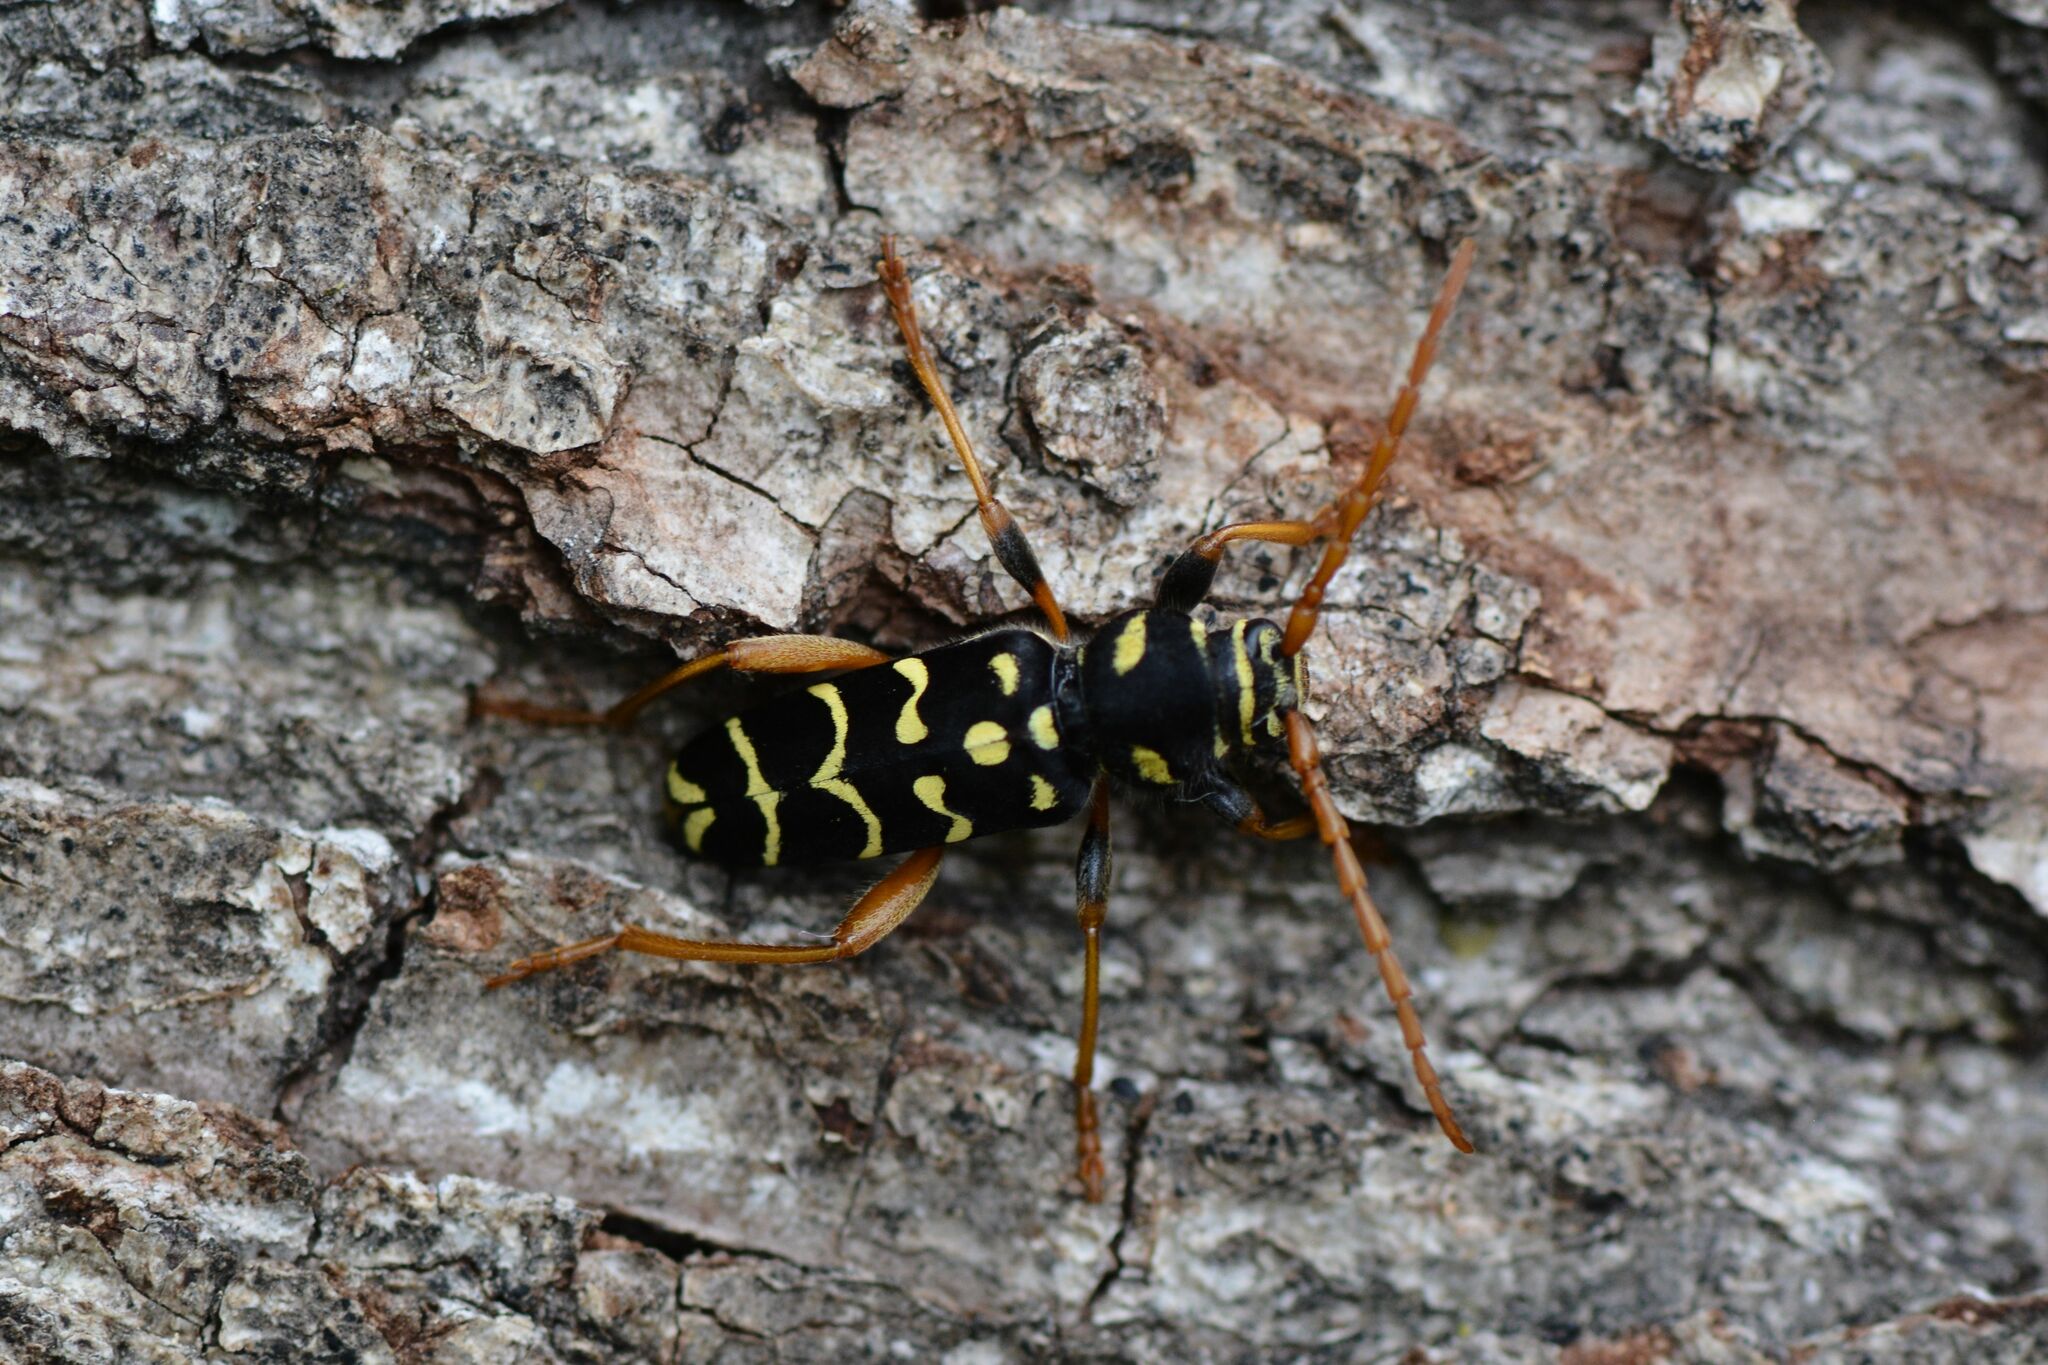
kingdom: Animalia
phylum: Arthropoda
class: Insecta
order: Coleoptera
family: Cerambycidae
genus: Plagionotus
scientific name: Plagionotus arcuatus
